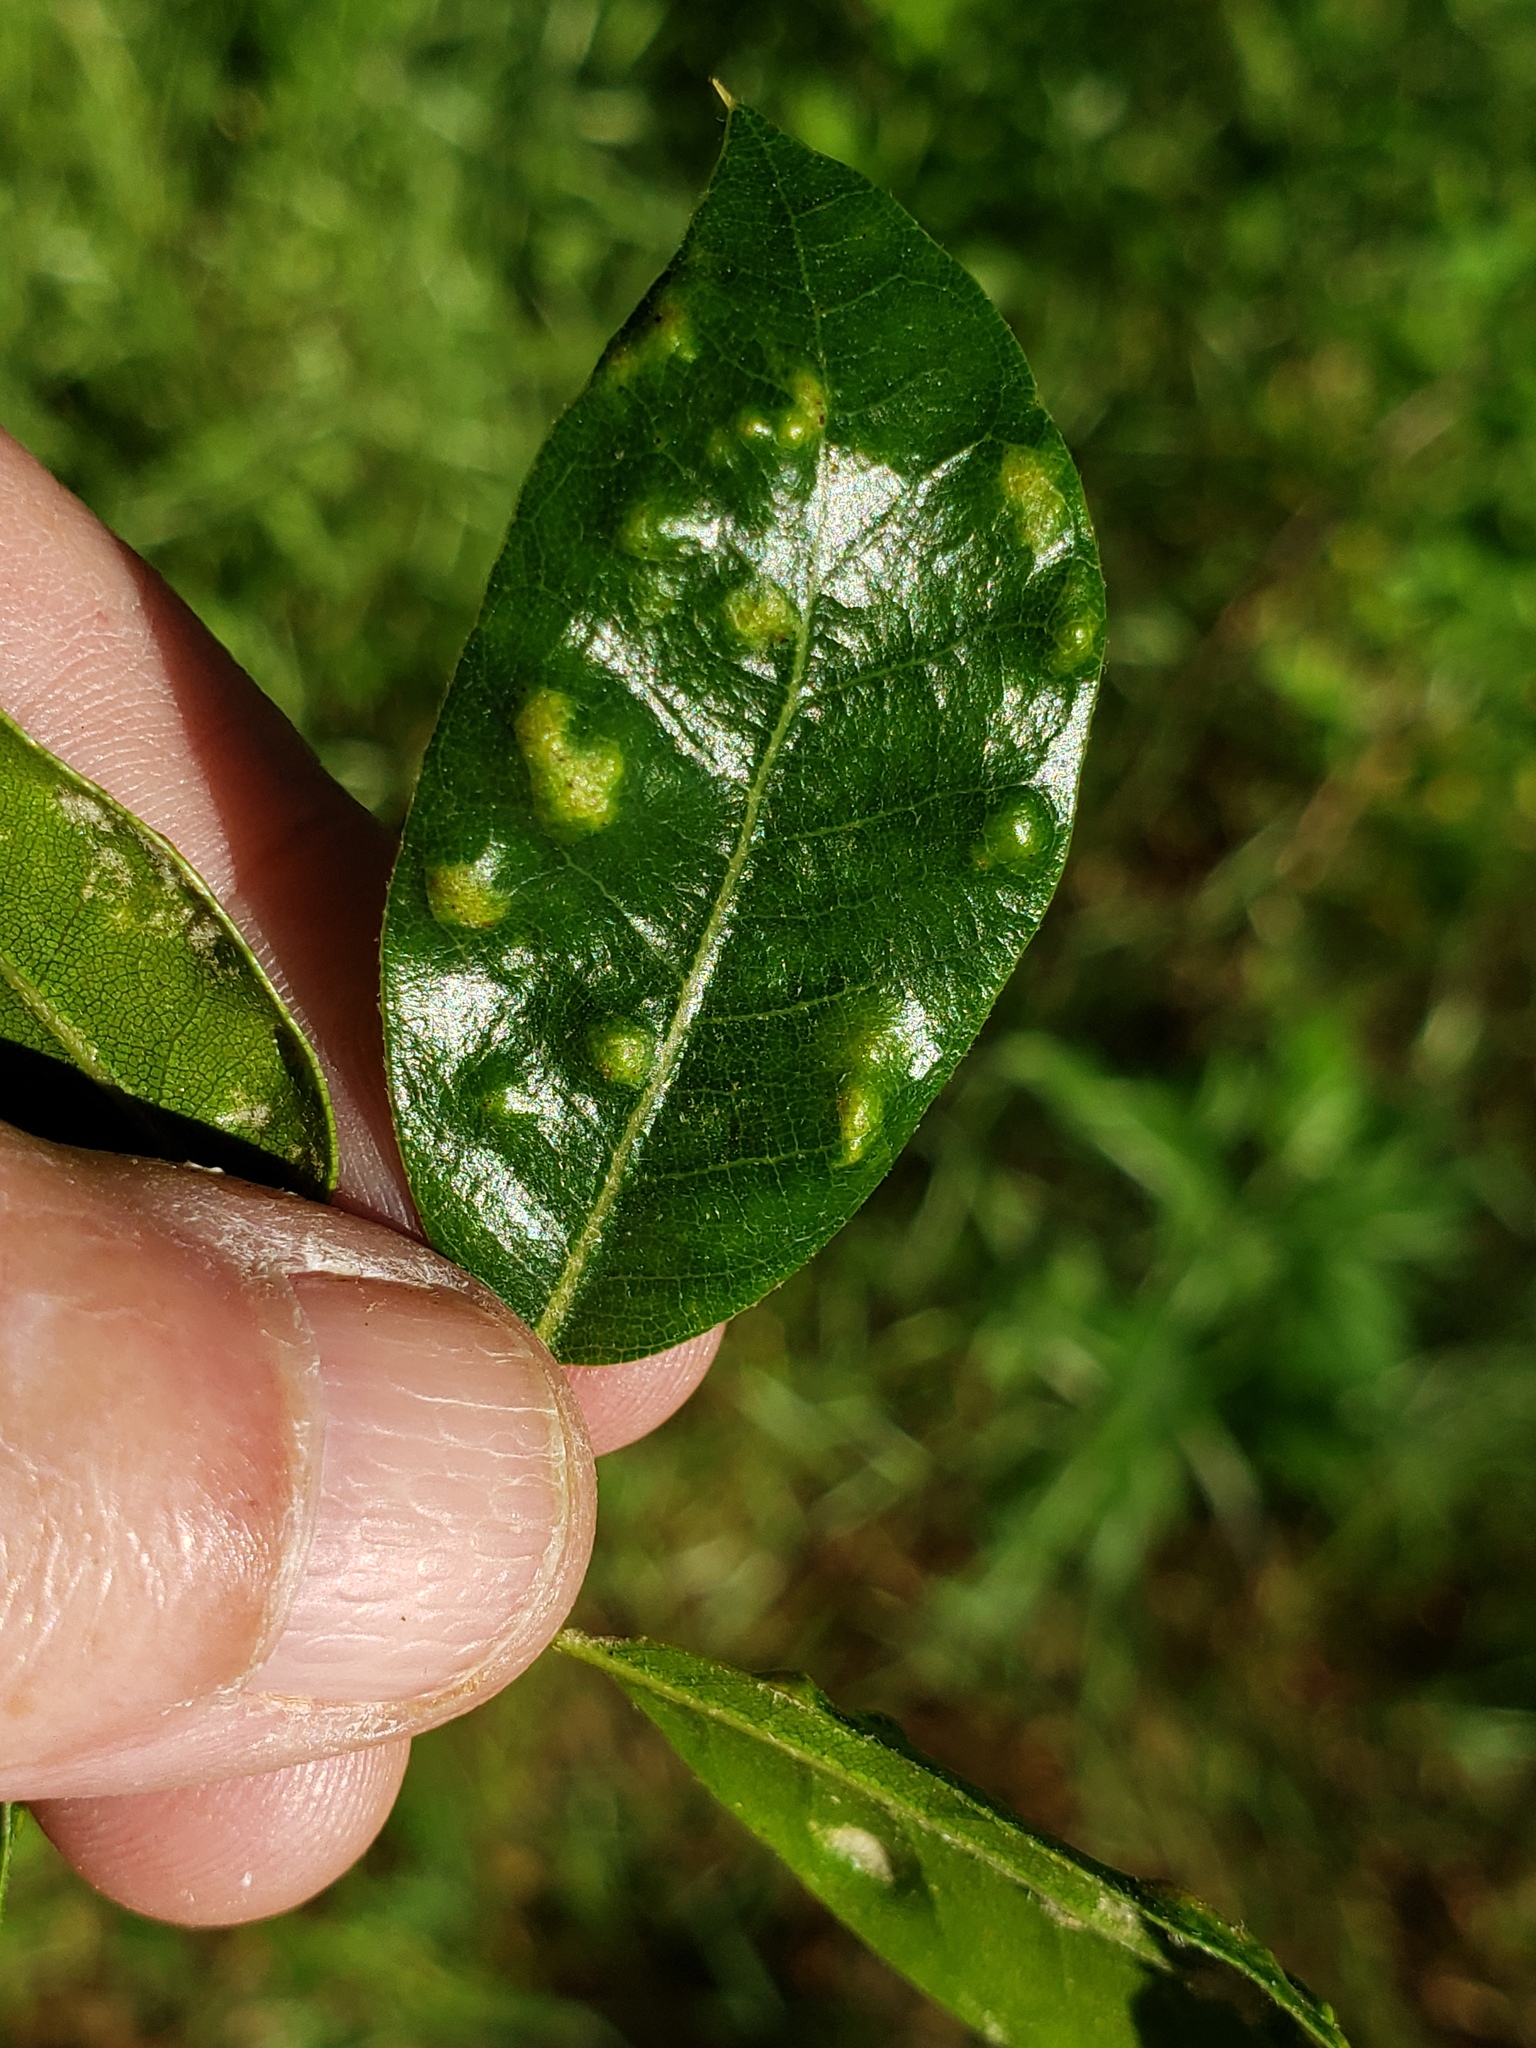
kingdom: Animalia
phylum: Arthropoda
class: Arachnida
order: Trombidiformes
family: Eriophyidae
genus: Aceria
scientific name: Aceria
